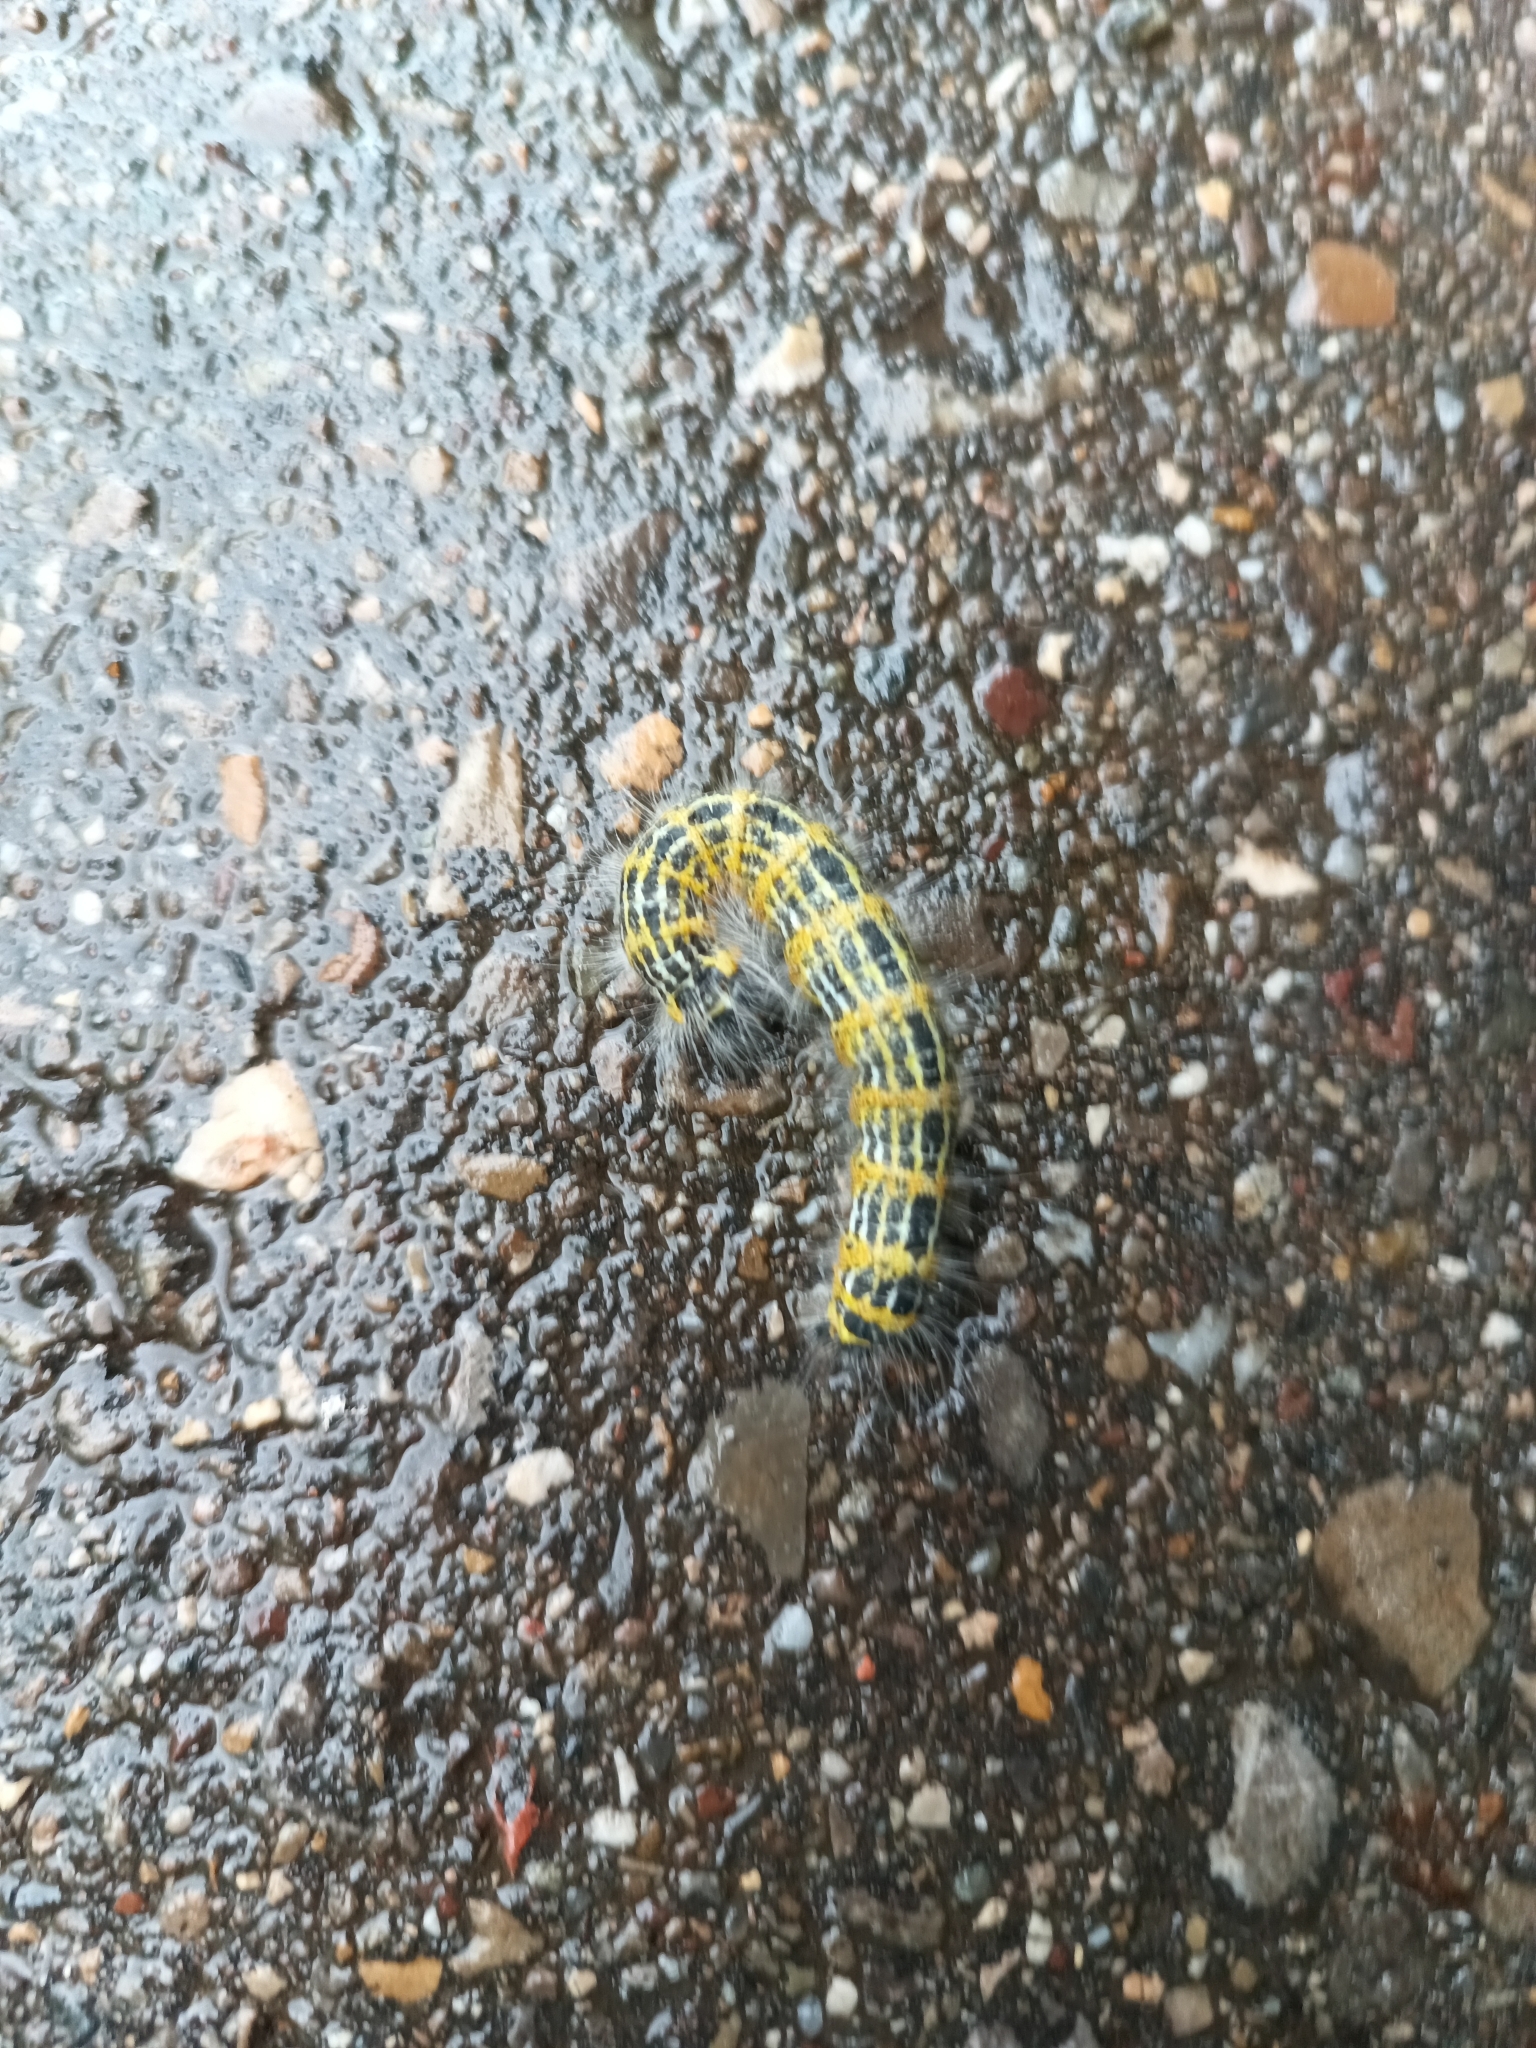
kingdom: Animalia
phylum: Arthropoda
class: Insecta
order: Lepidoptera
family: Notodontidae
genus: Phalera
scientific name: Phalera bucephala
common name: Buff-tip
